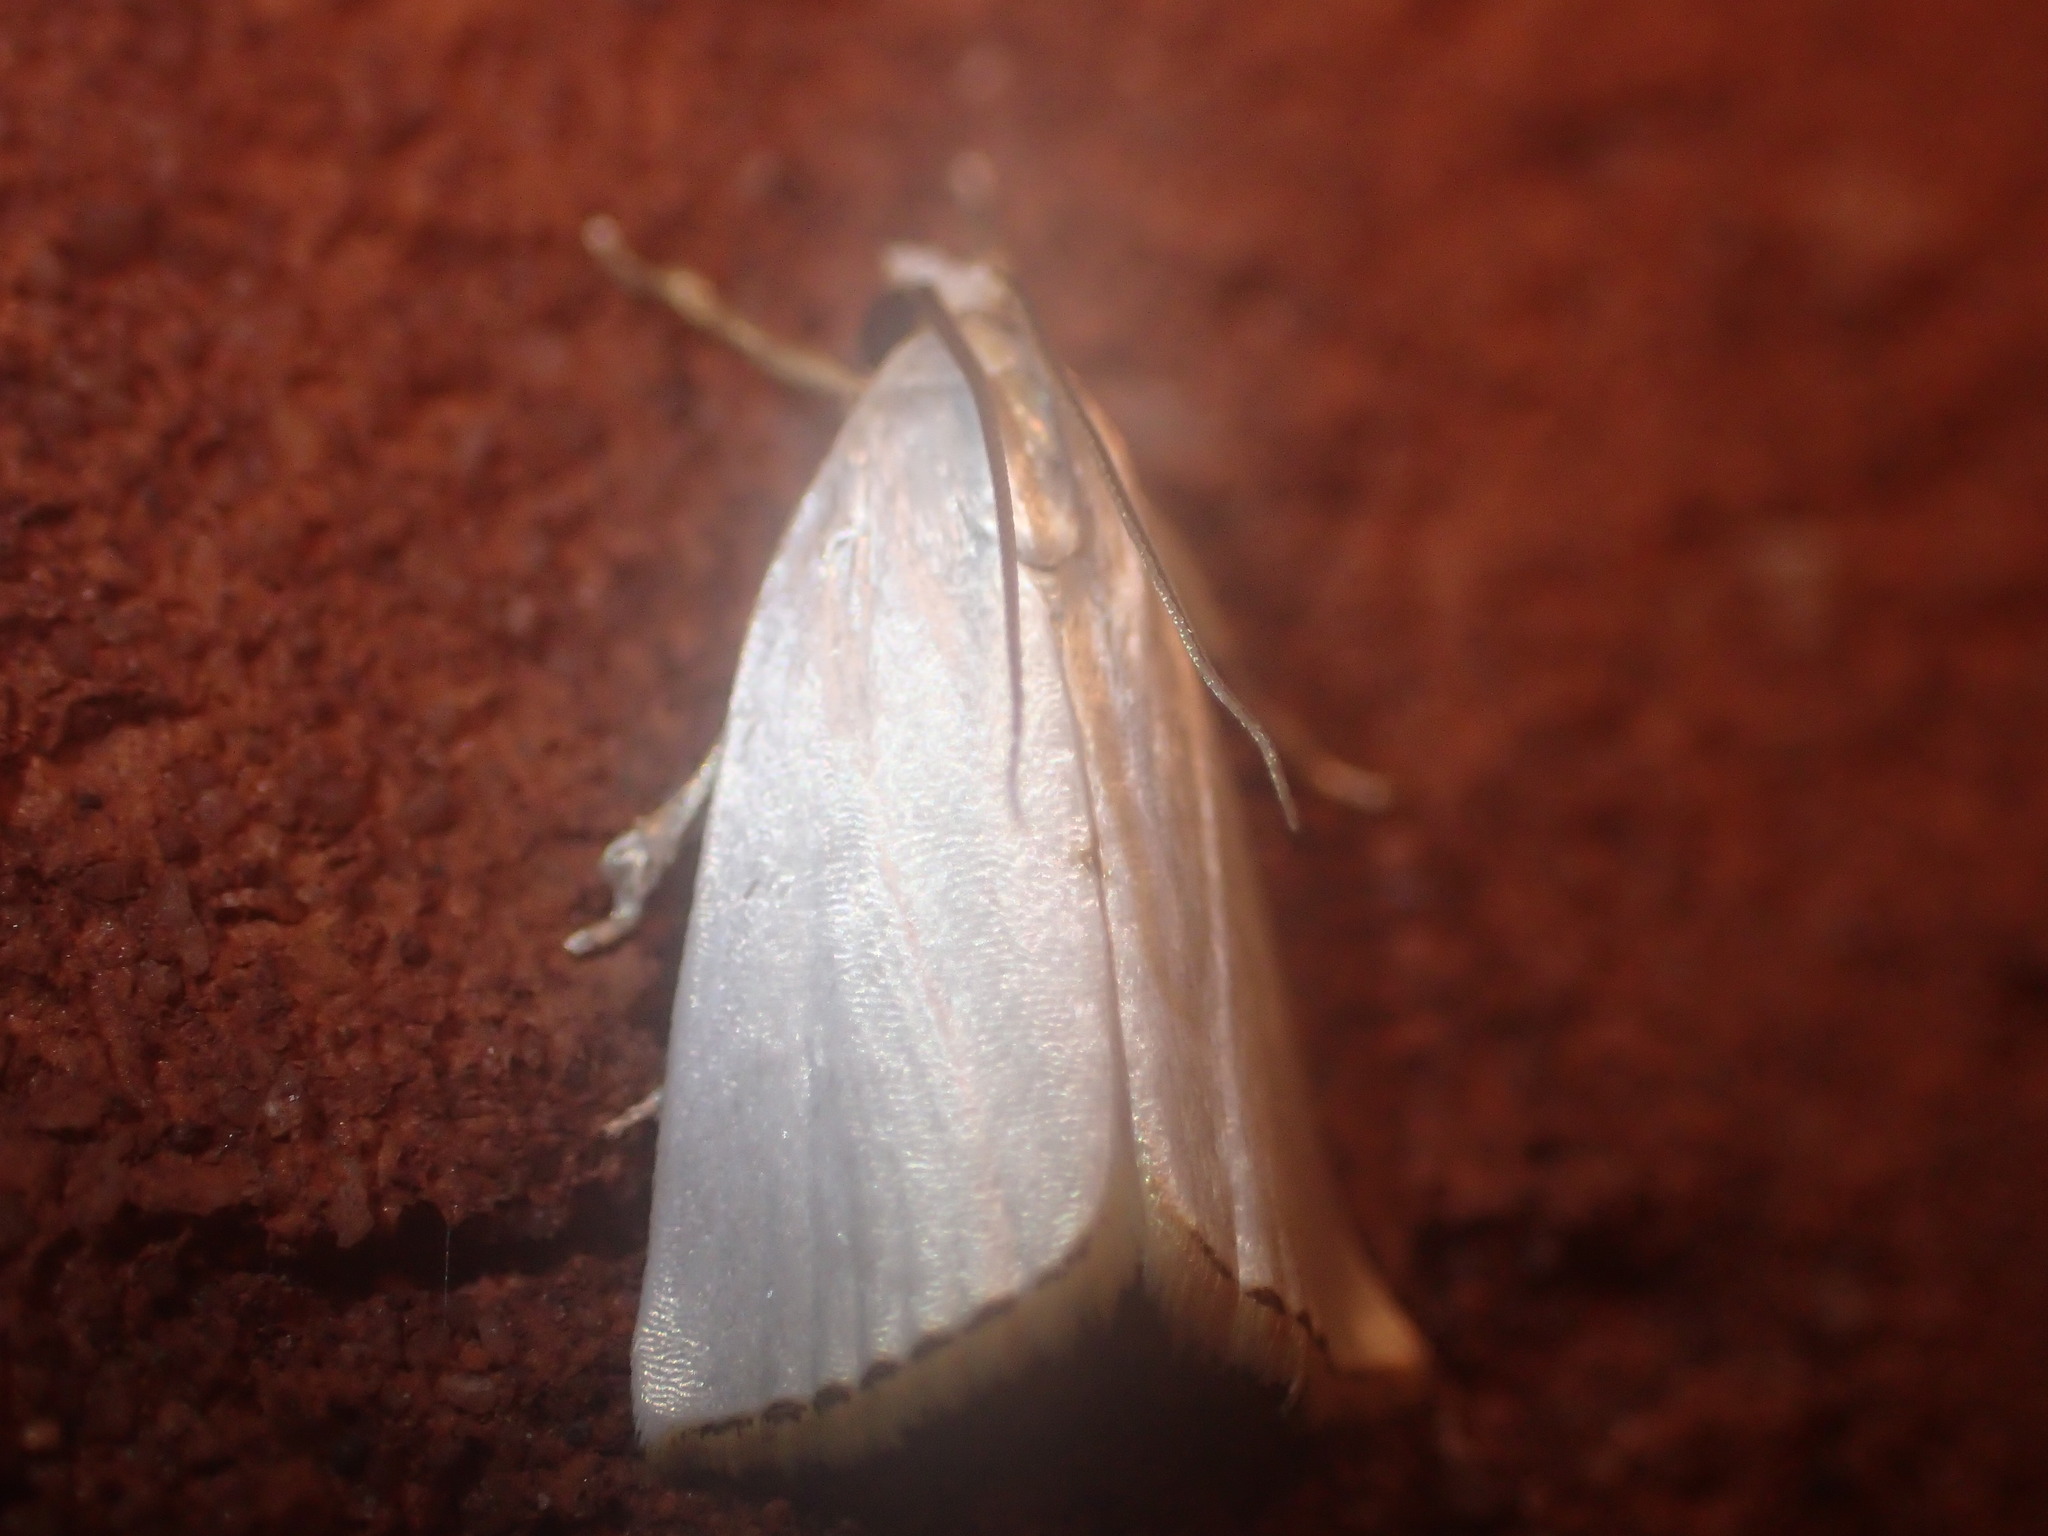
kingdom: Animalia
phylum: Arthropoda
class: Insecta
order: Lepidoptera
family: Crambidae
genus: Argyria
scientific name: Argyria nivalis
